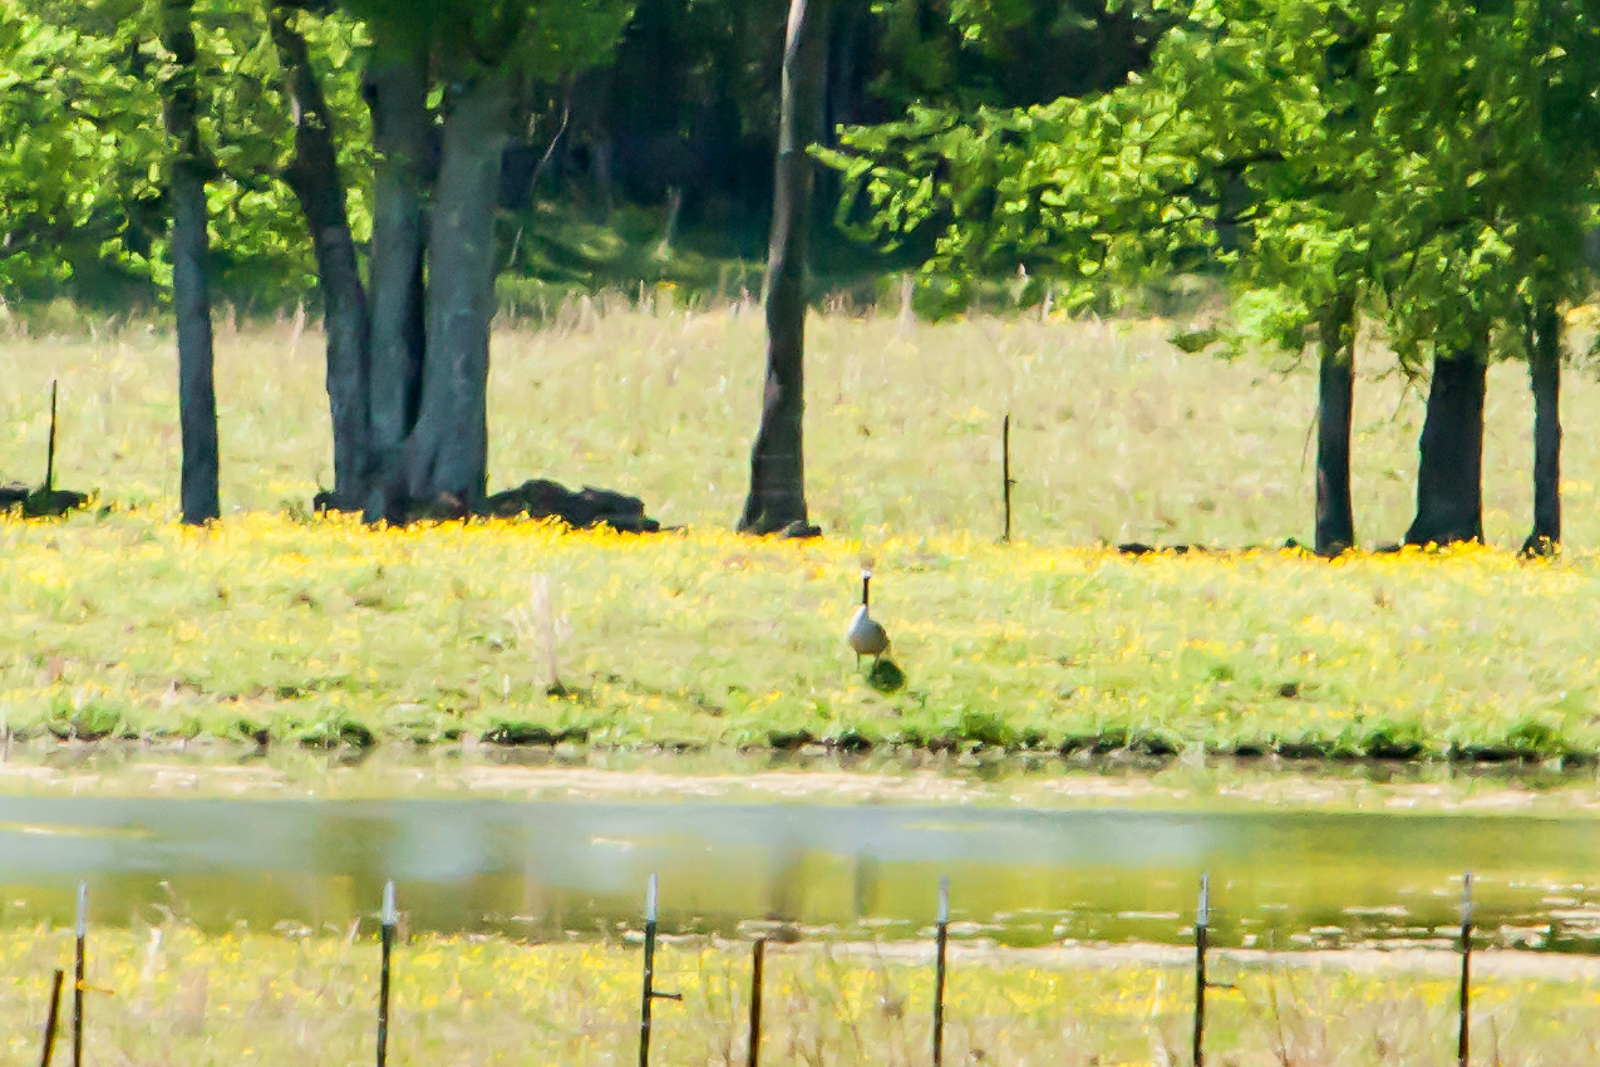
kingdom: Animalia
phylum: Chordata
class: Aves
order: Anseriformes
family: Anatidae
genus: Branta
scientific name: Branta canadensis
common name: Canada goose
